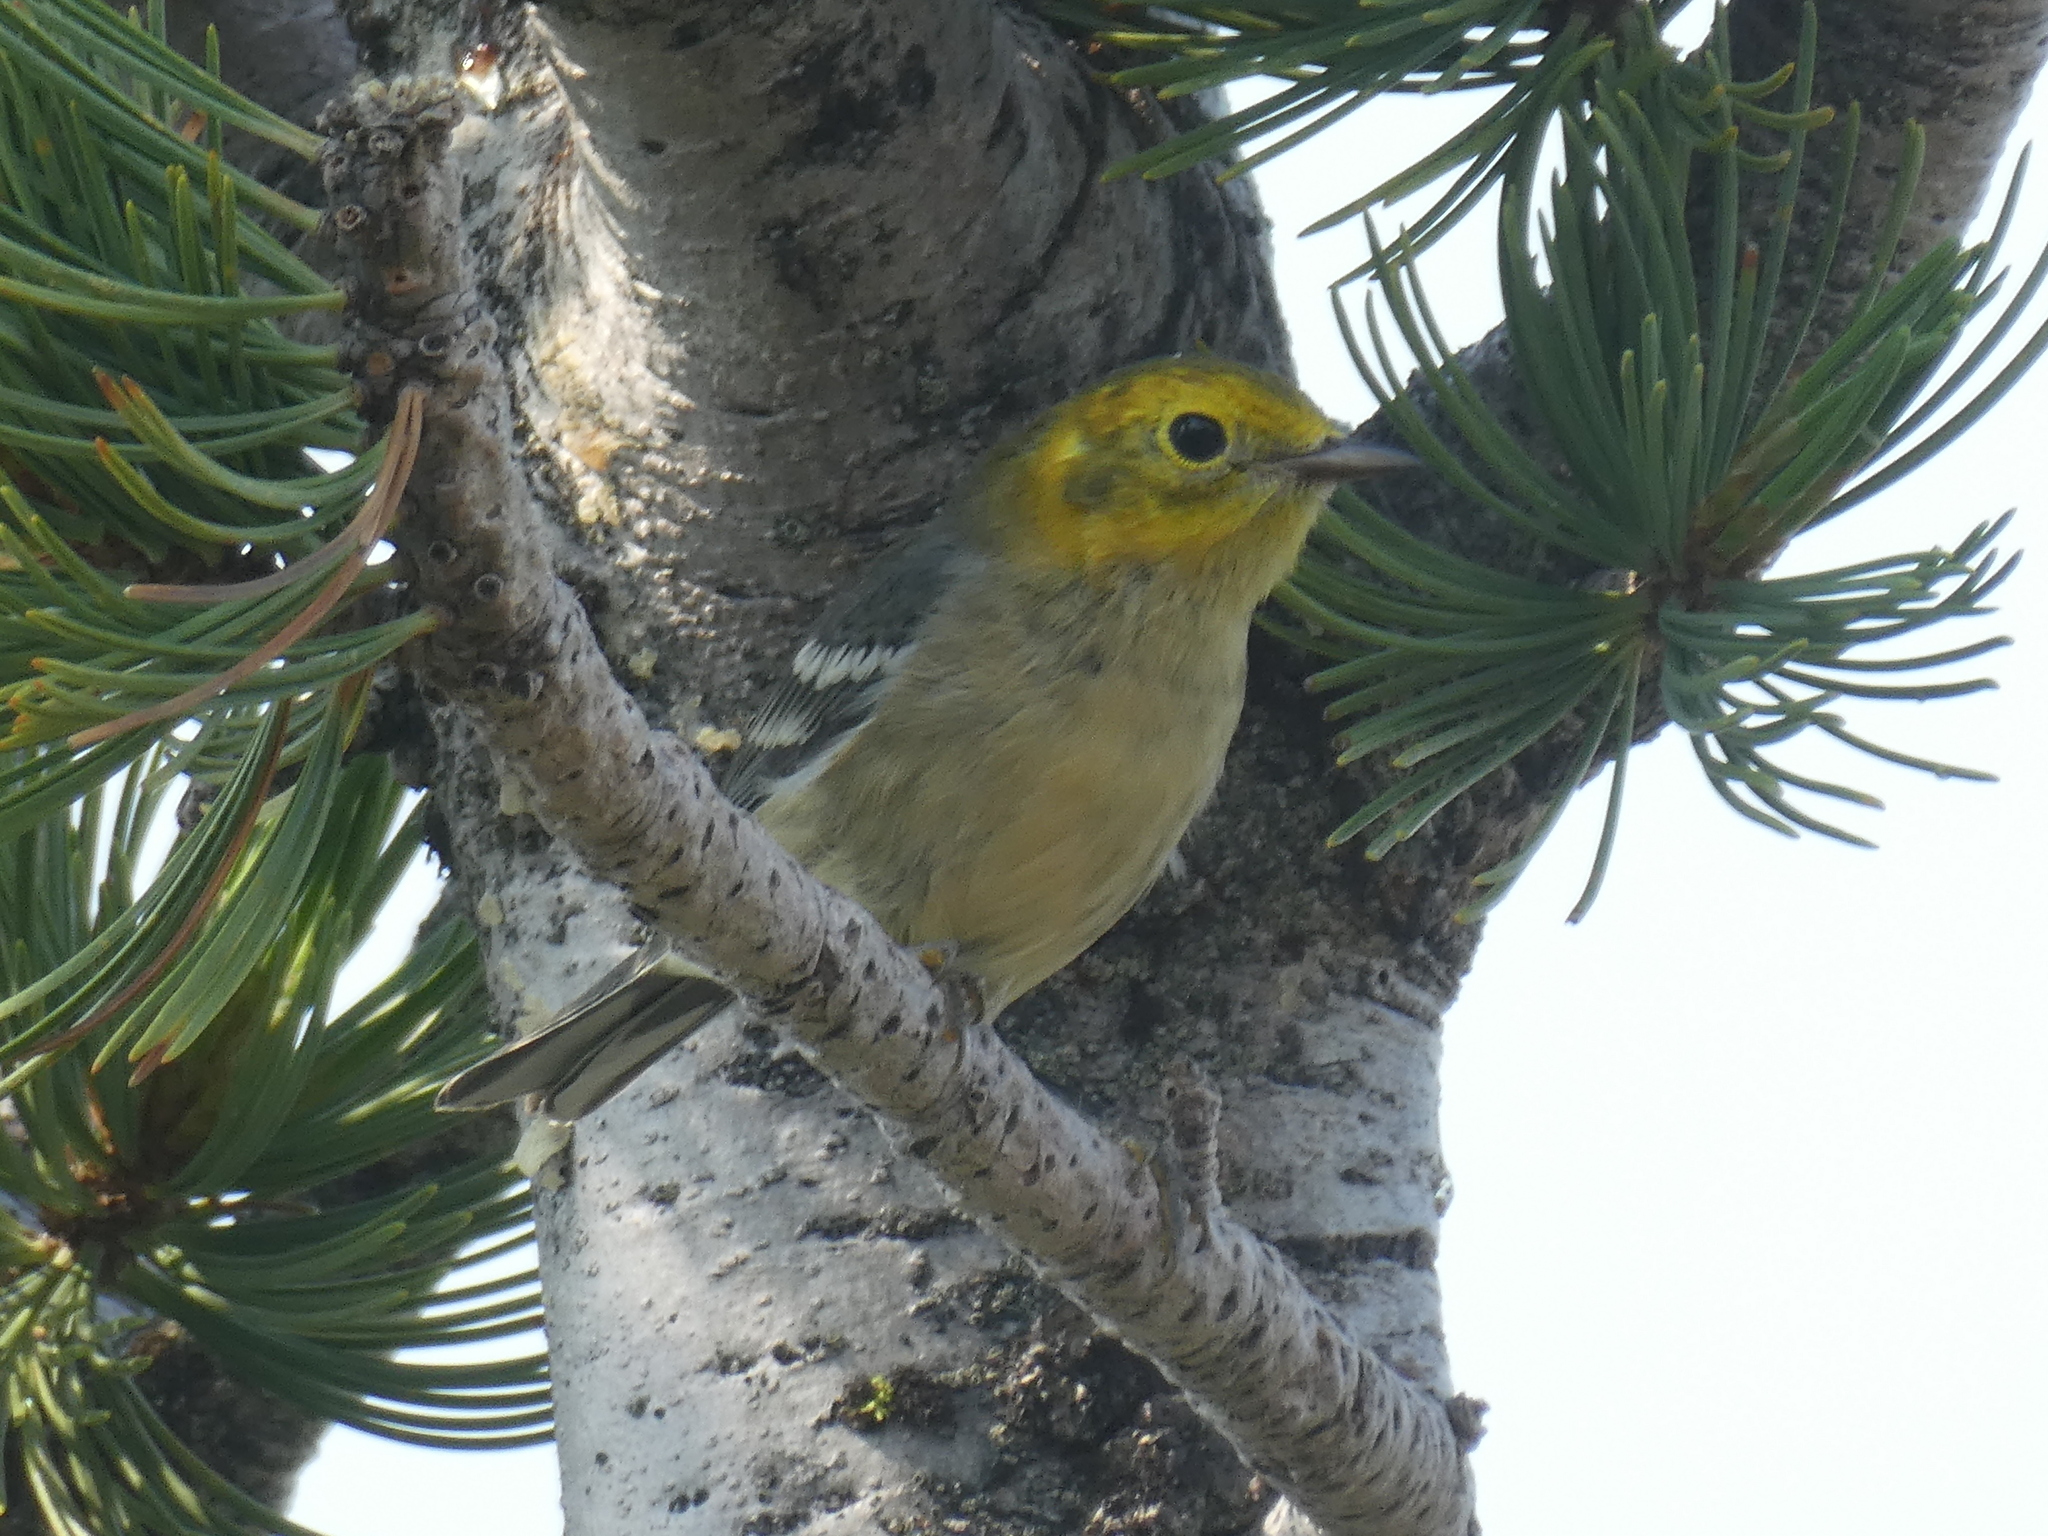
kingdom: Animalia
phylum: Chordata
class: Aves
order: Passeriformes
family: Parulidae
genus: Setophaga
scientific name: Setophaga occidentalis
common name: Hermit warbler
